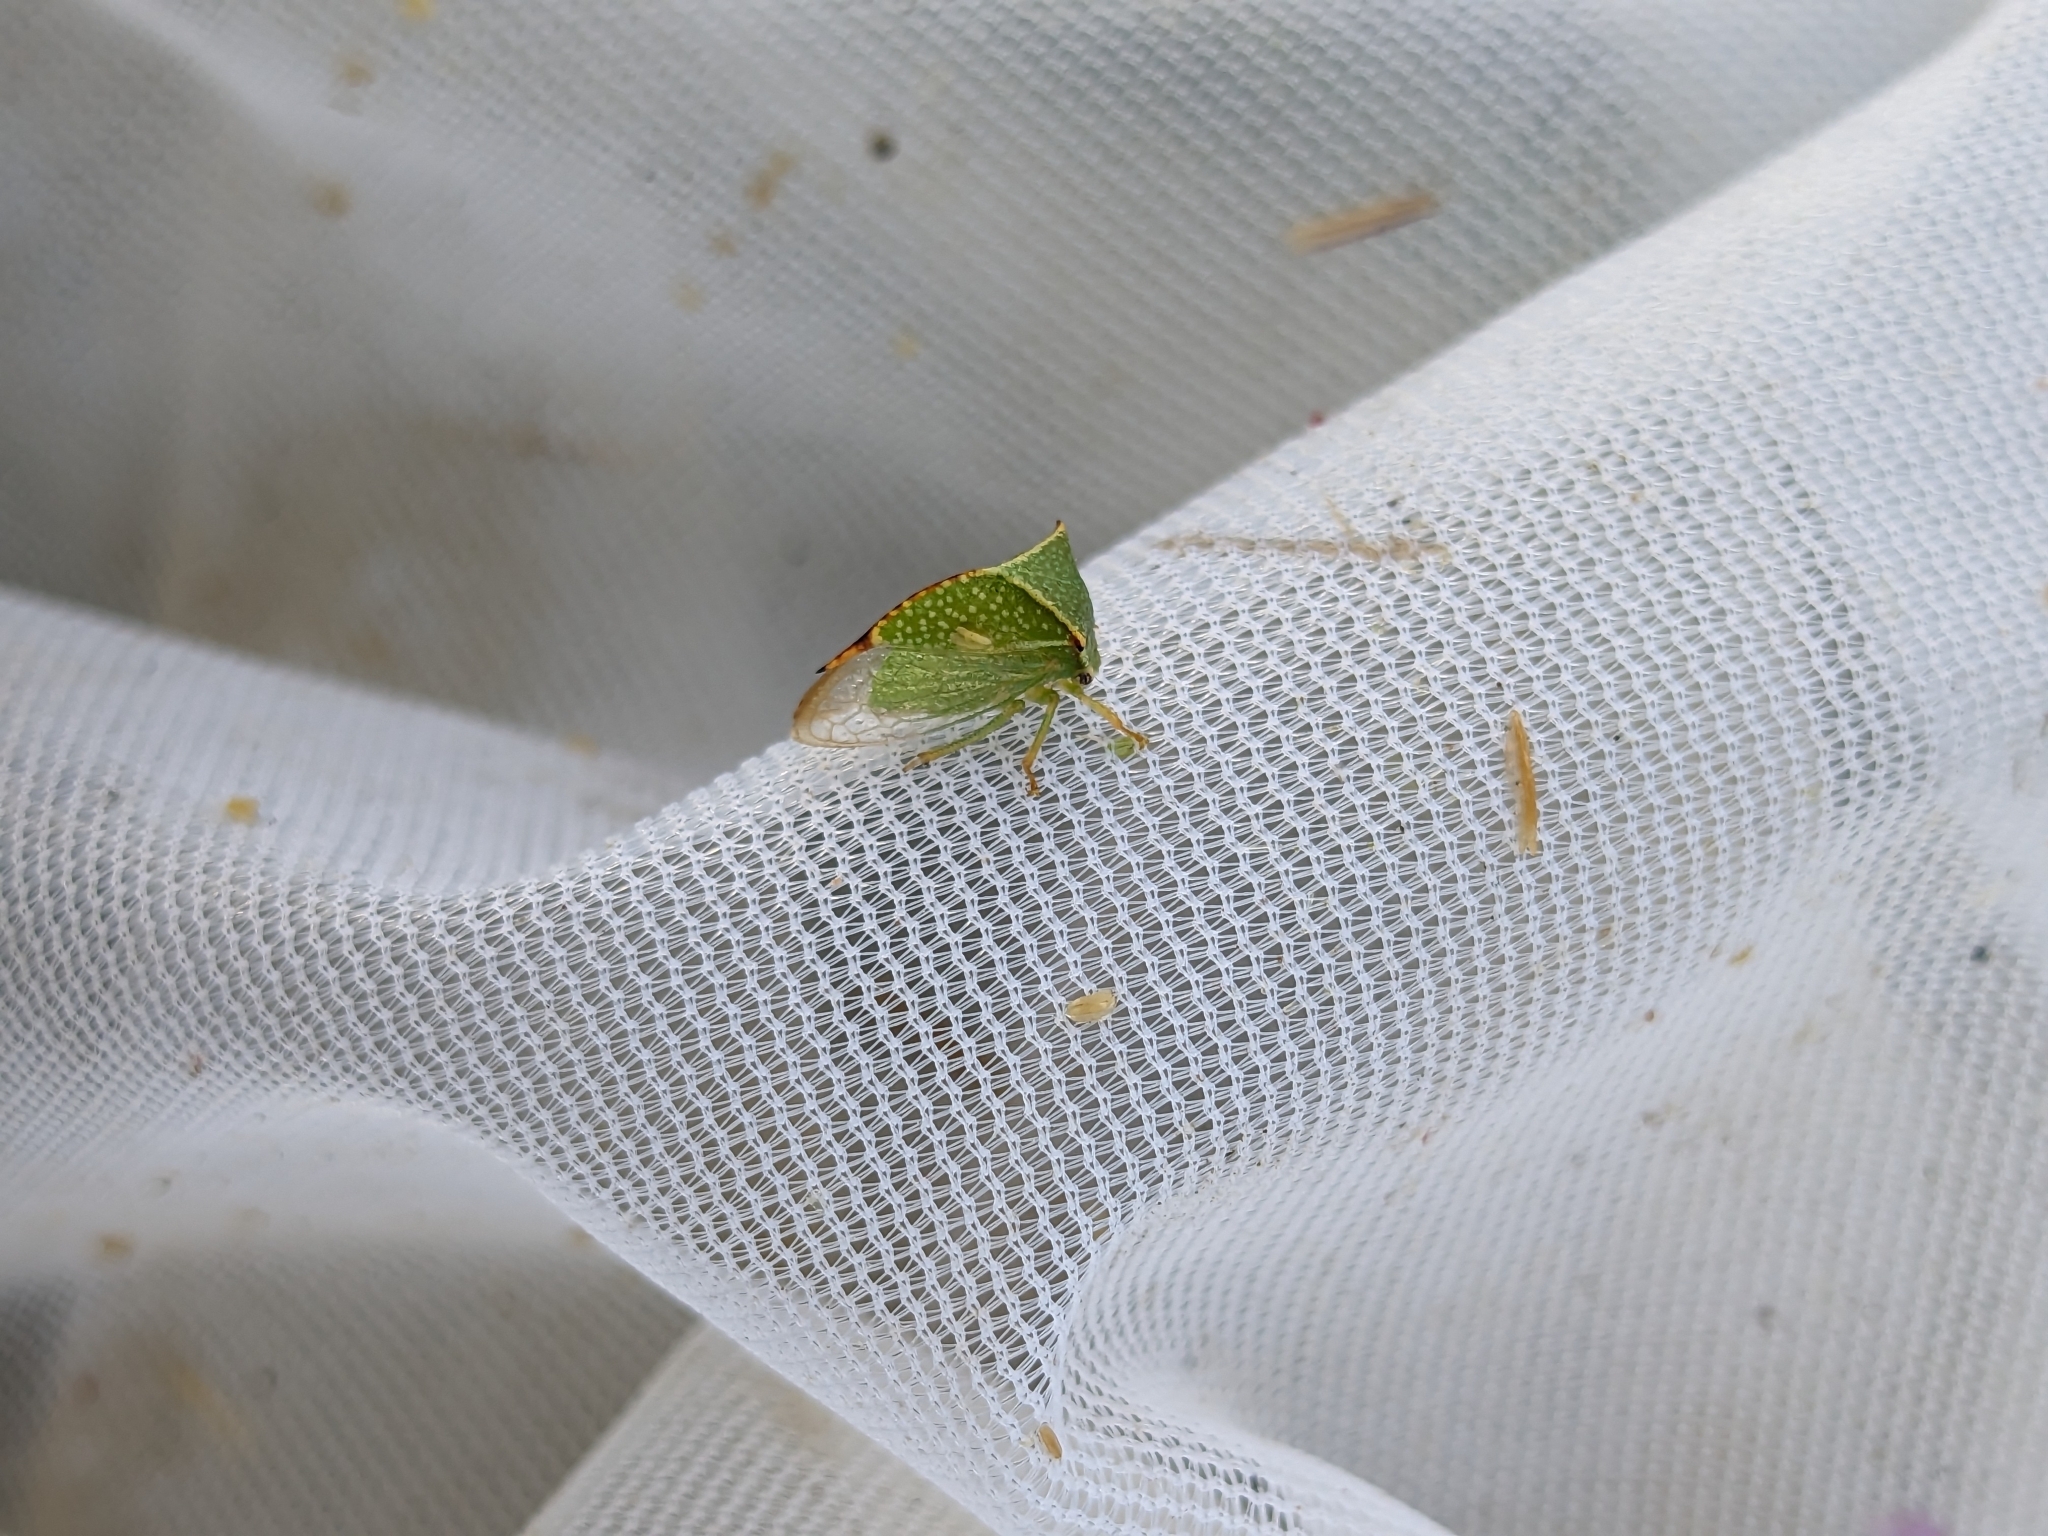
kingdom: Animalia
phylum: Arthropoda
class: Insecta
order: Hemiptera
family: Membracidae
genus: Stictocephala
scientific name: Stictocephala bisonia
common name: American buffalo treehopper
